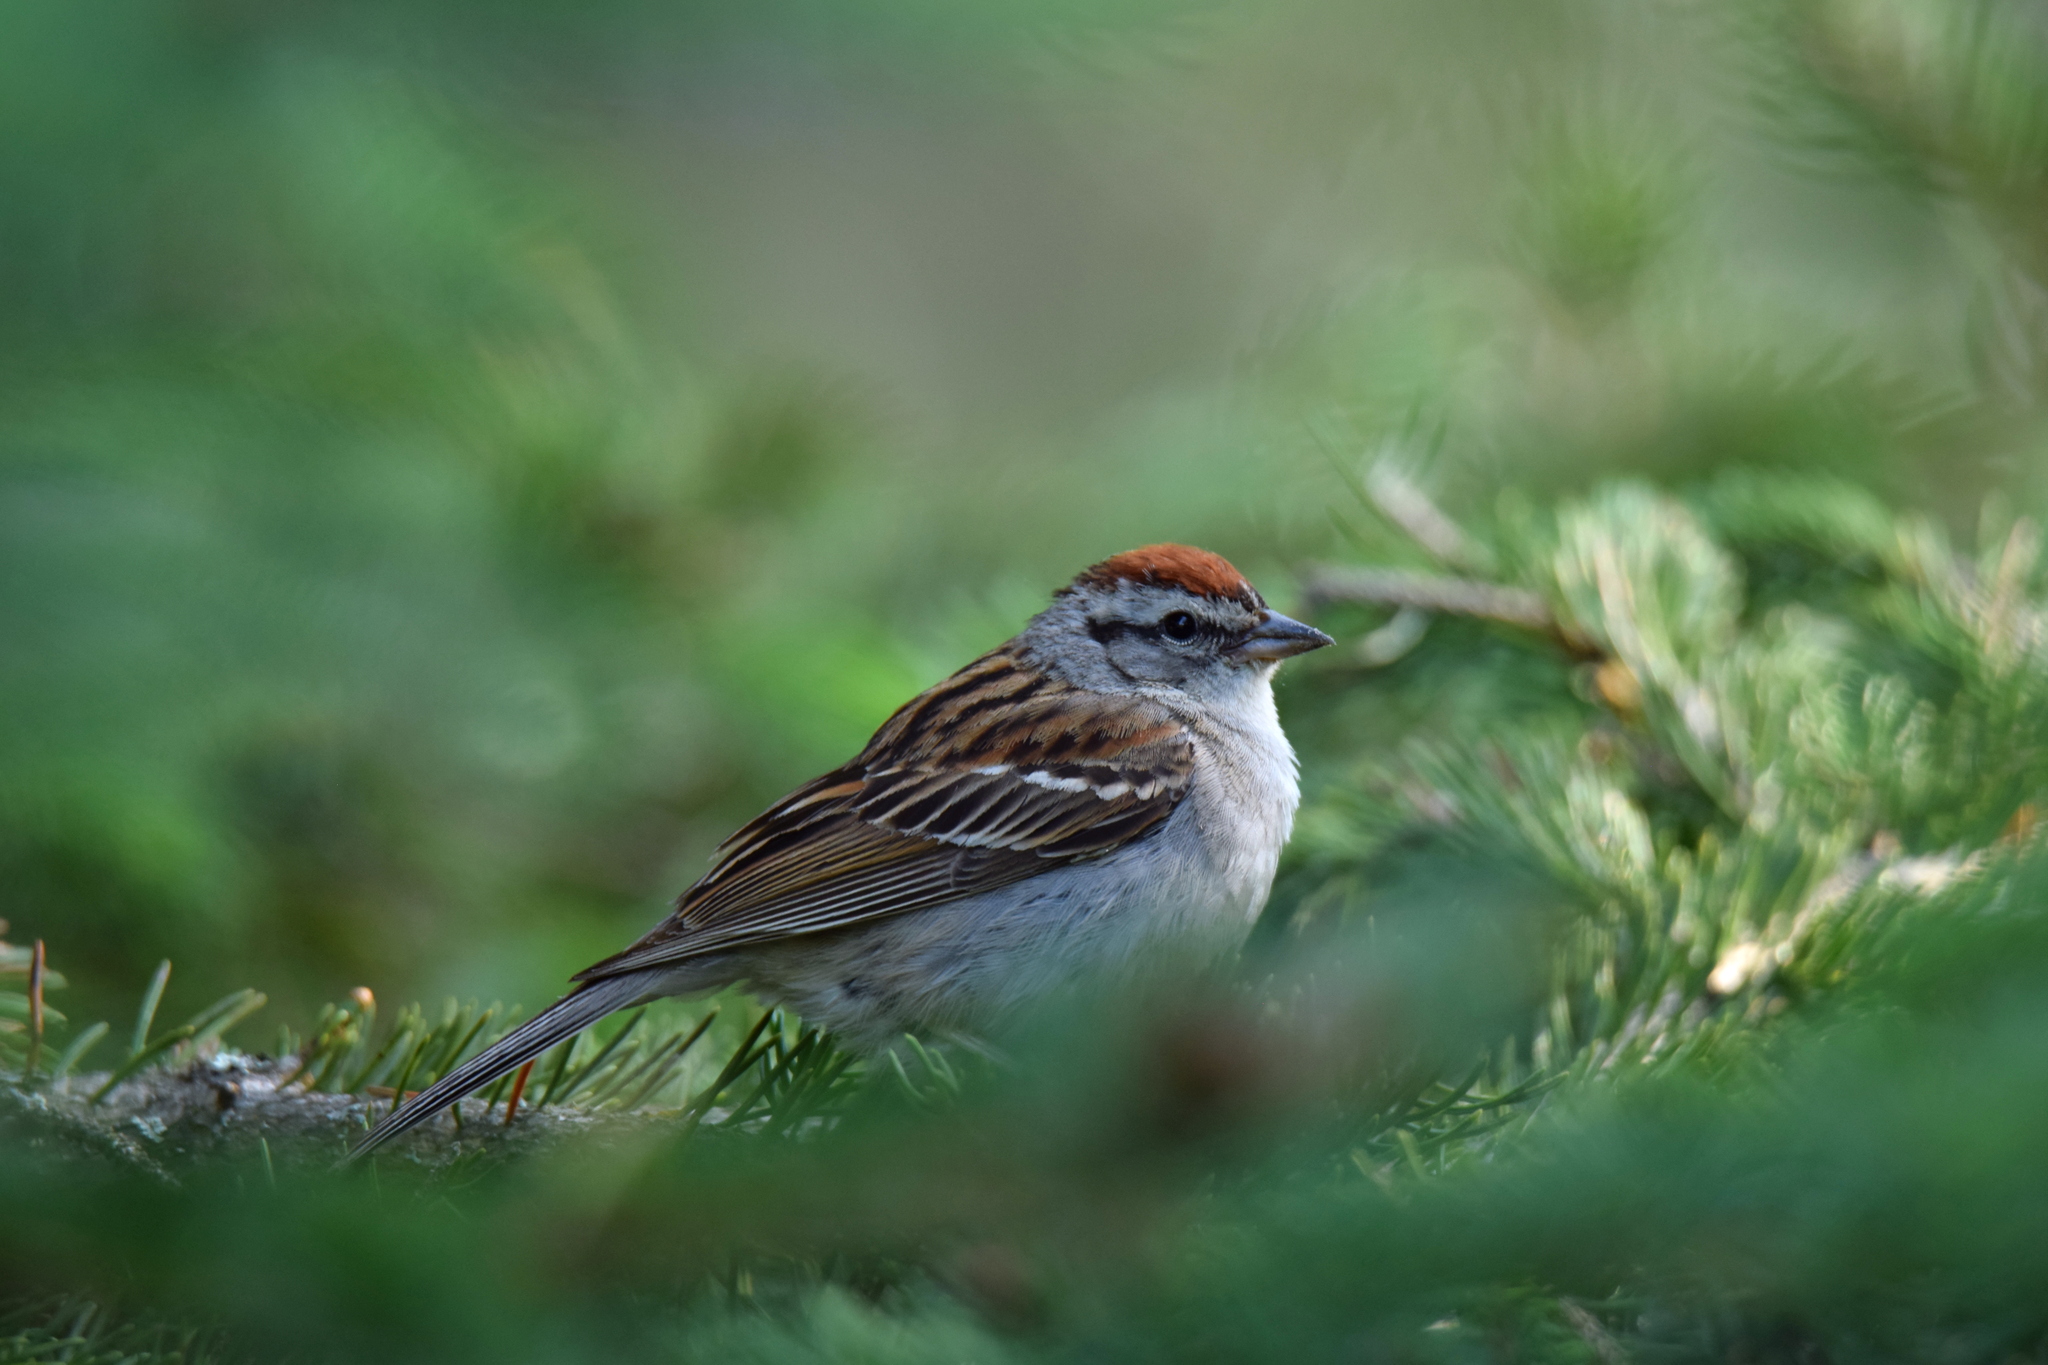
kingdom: Animalia
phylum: Chordata
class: Aves
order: Passeriformes
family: Passerellidae
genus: Spizella
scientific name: Spizella passerina
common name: Chipping sparrow
